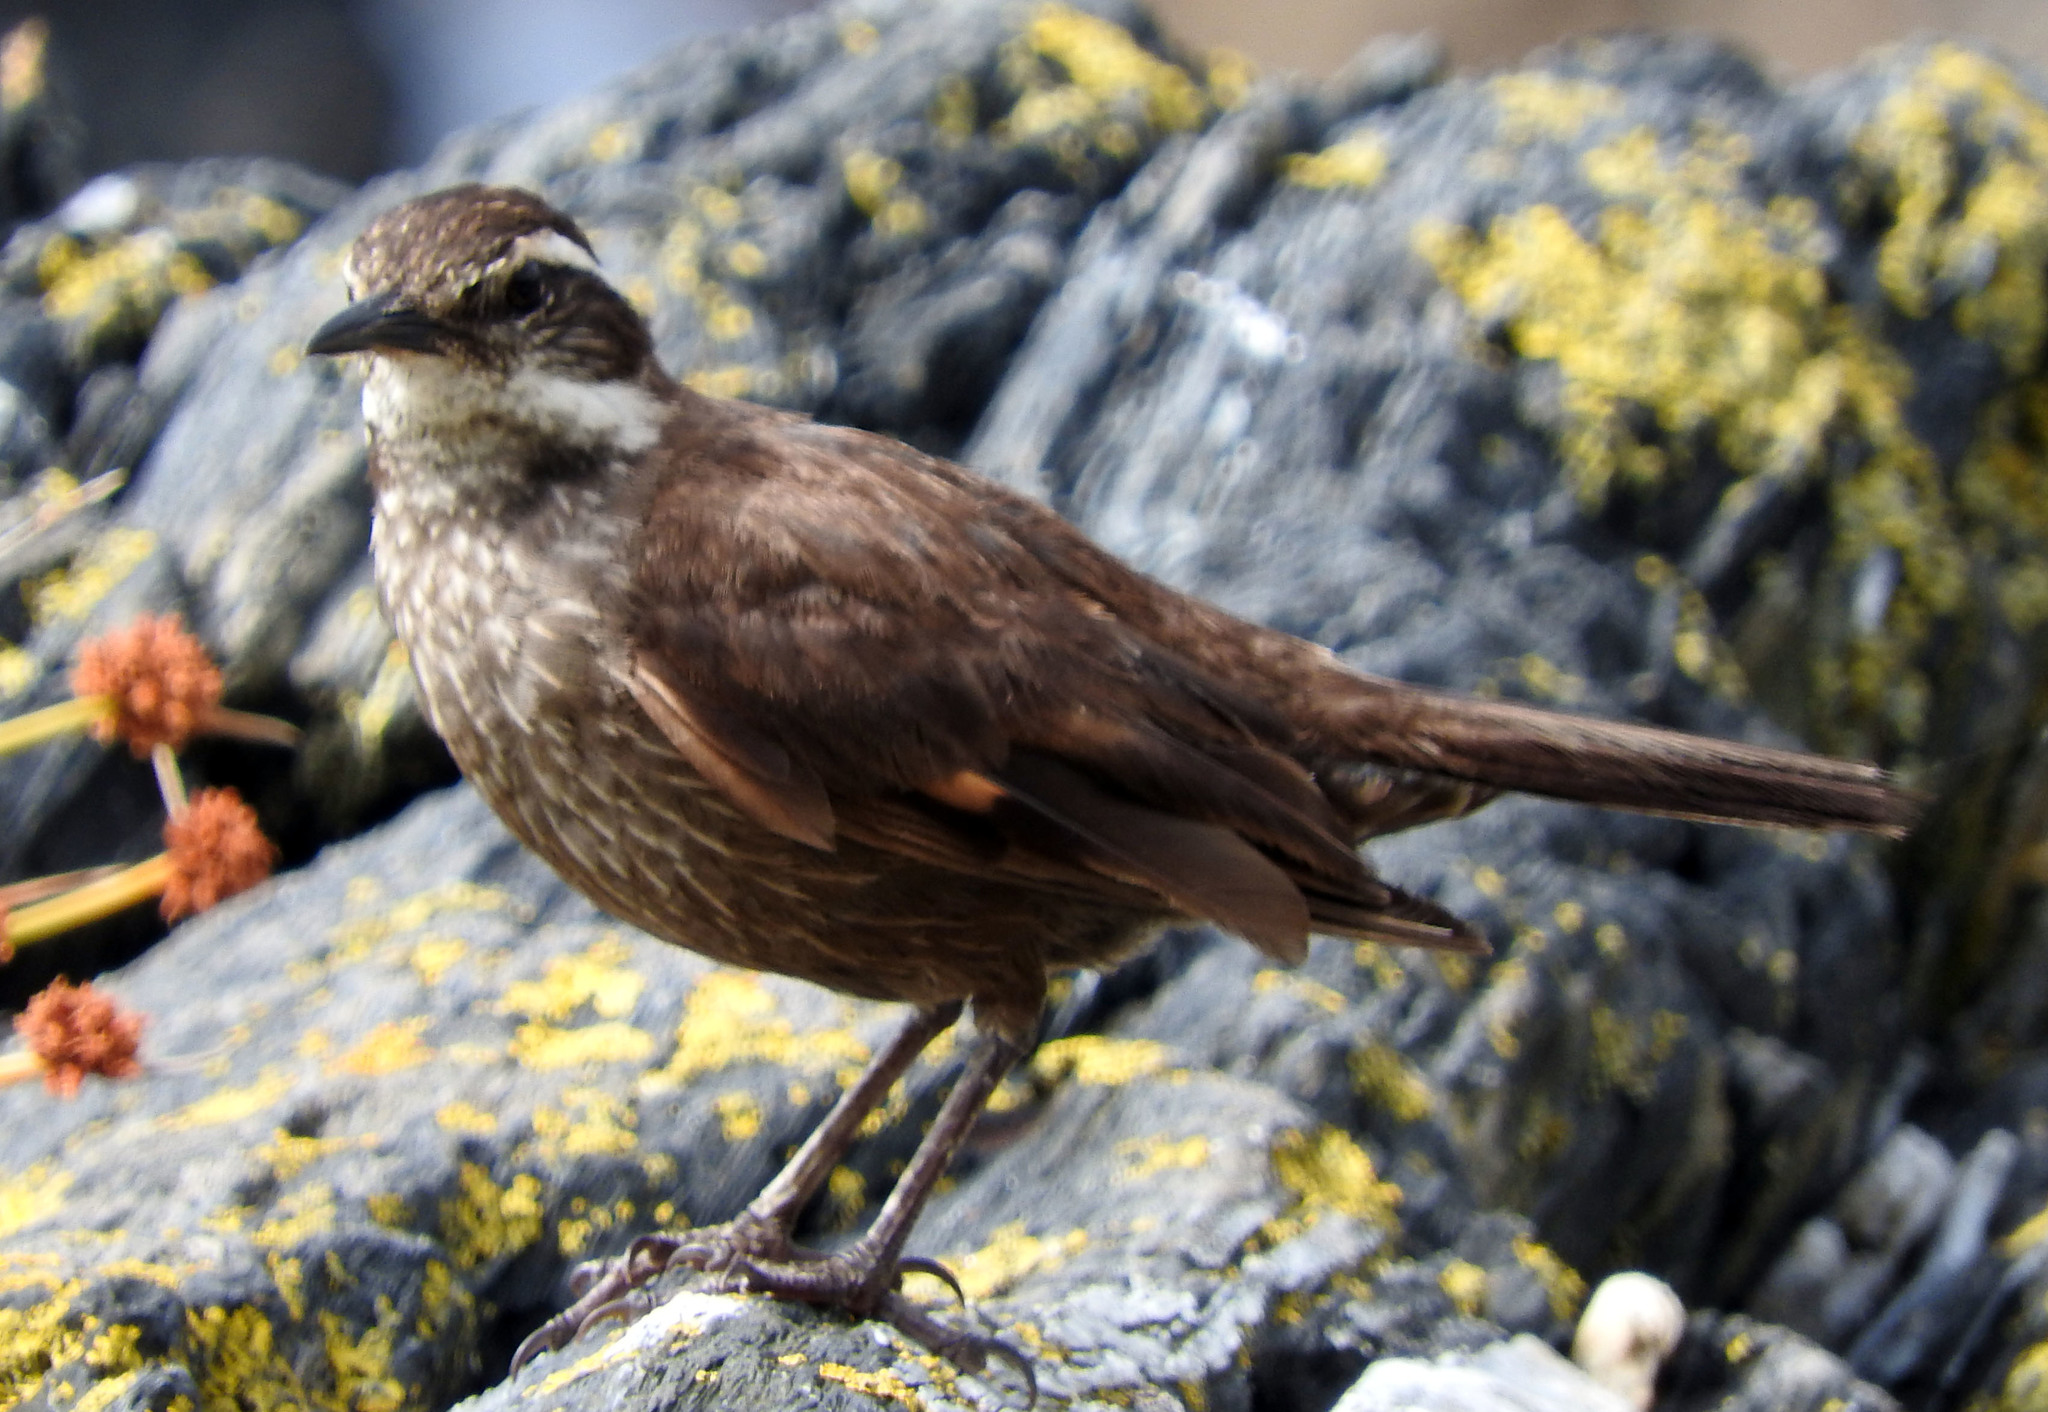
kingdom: Animalia
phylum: Chordata
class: Aves
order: Passeriformes
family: Furnariidae
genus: Cinclodes
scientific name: Cinclodes patagonicus
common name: Dark-bellied cinclodes
